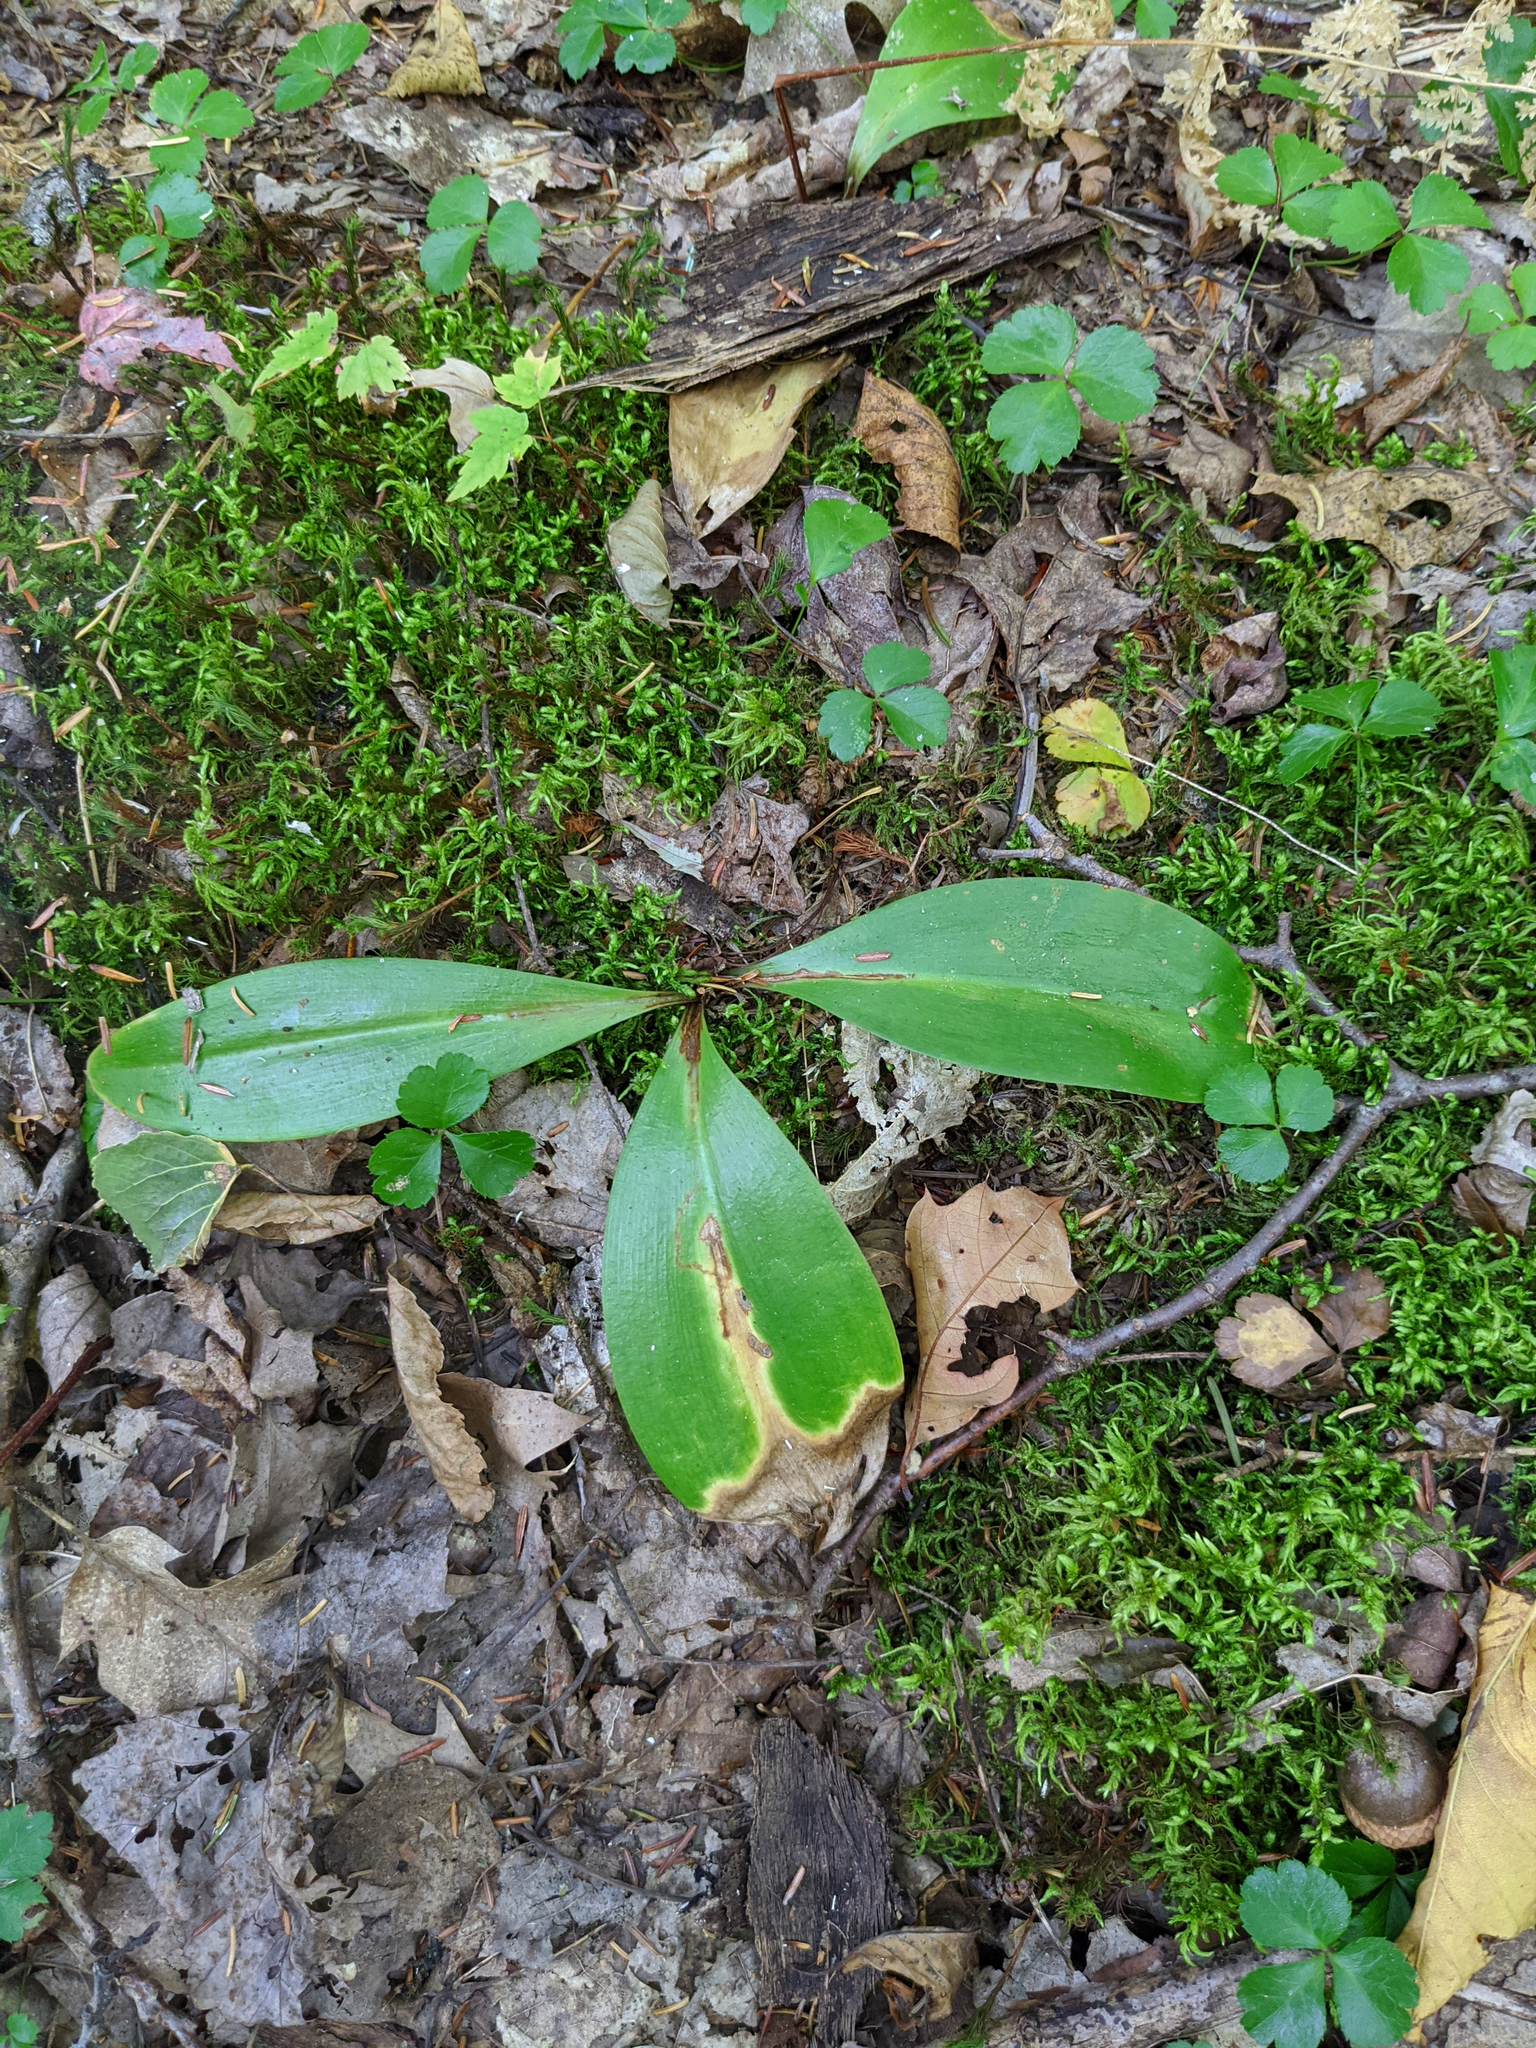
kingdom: Plantae
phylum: Tracheophyta
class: Liliopsida
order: Liliales
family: Liliaceae
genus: Clintonia
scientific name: Clintonia borealis
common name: Yellow clintonia
